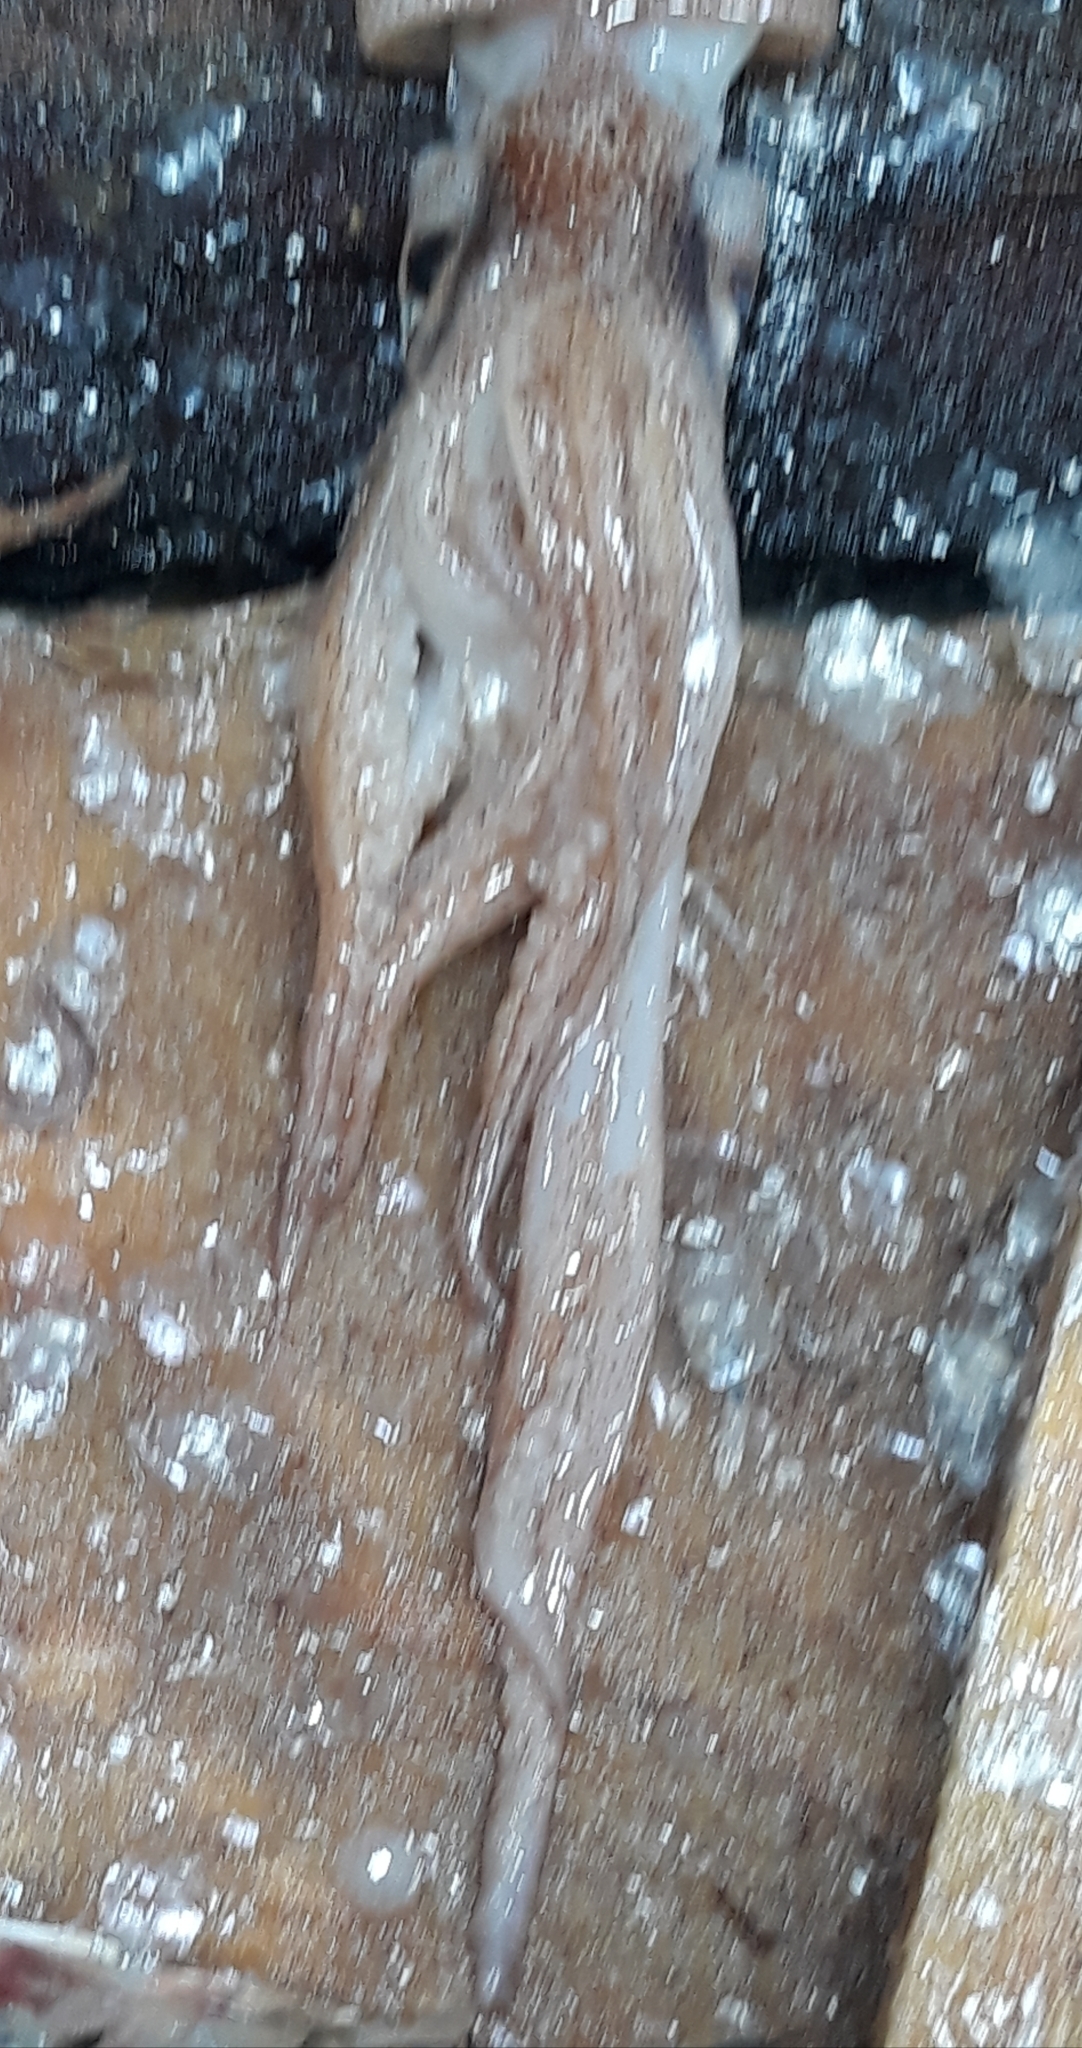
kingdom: Animalia
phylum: Mollusca
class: Cephalopoda
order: Oegopsida
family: Ommastrephidae
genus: Illex
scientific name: Illex coindetii
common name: Broadtail shortfin squid
